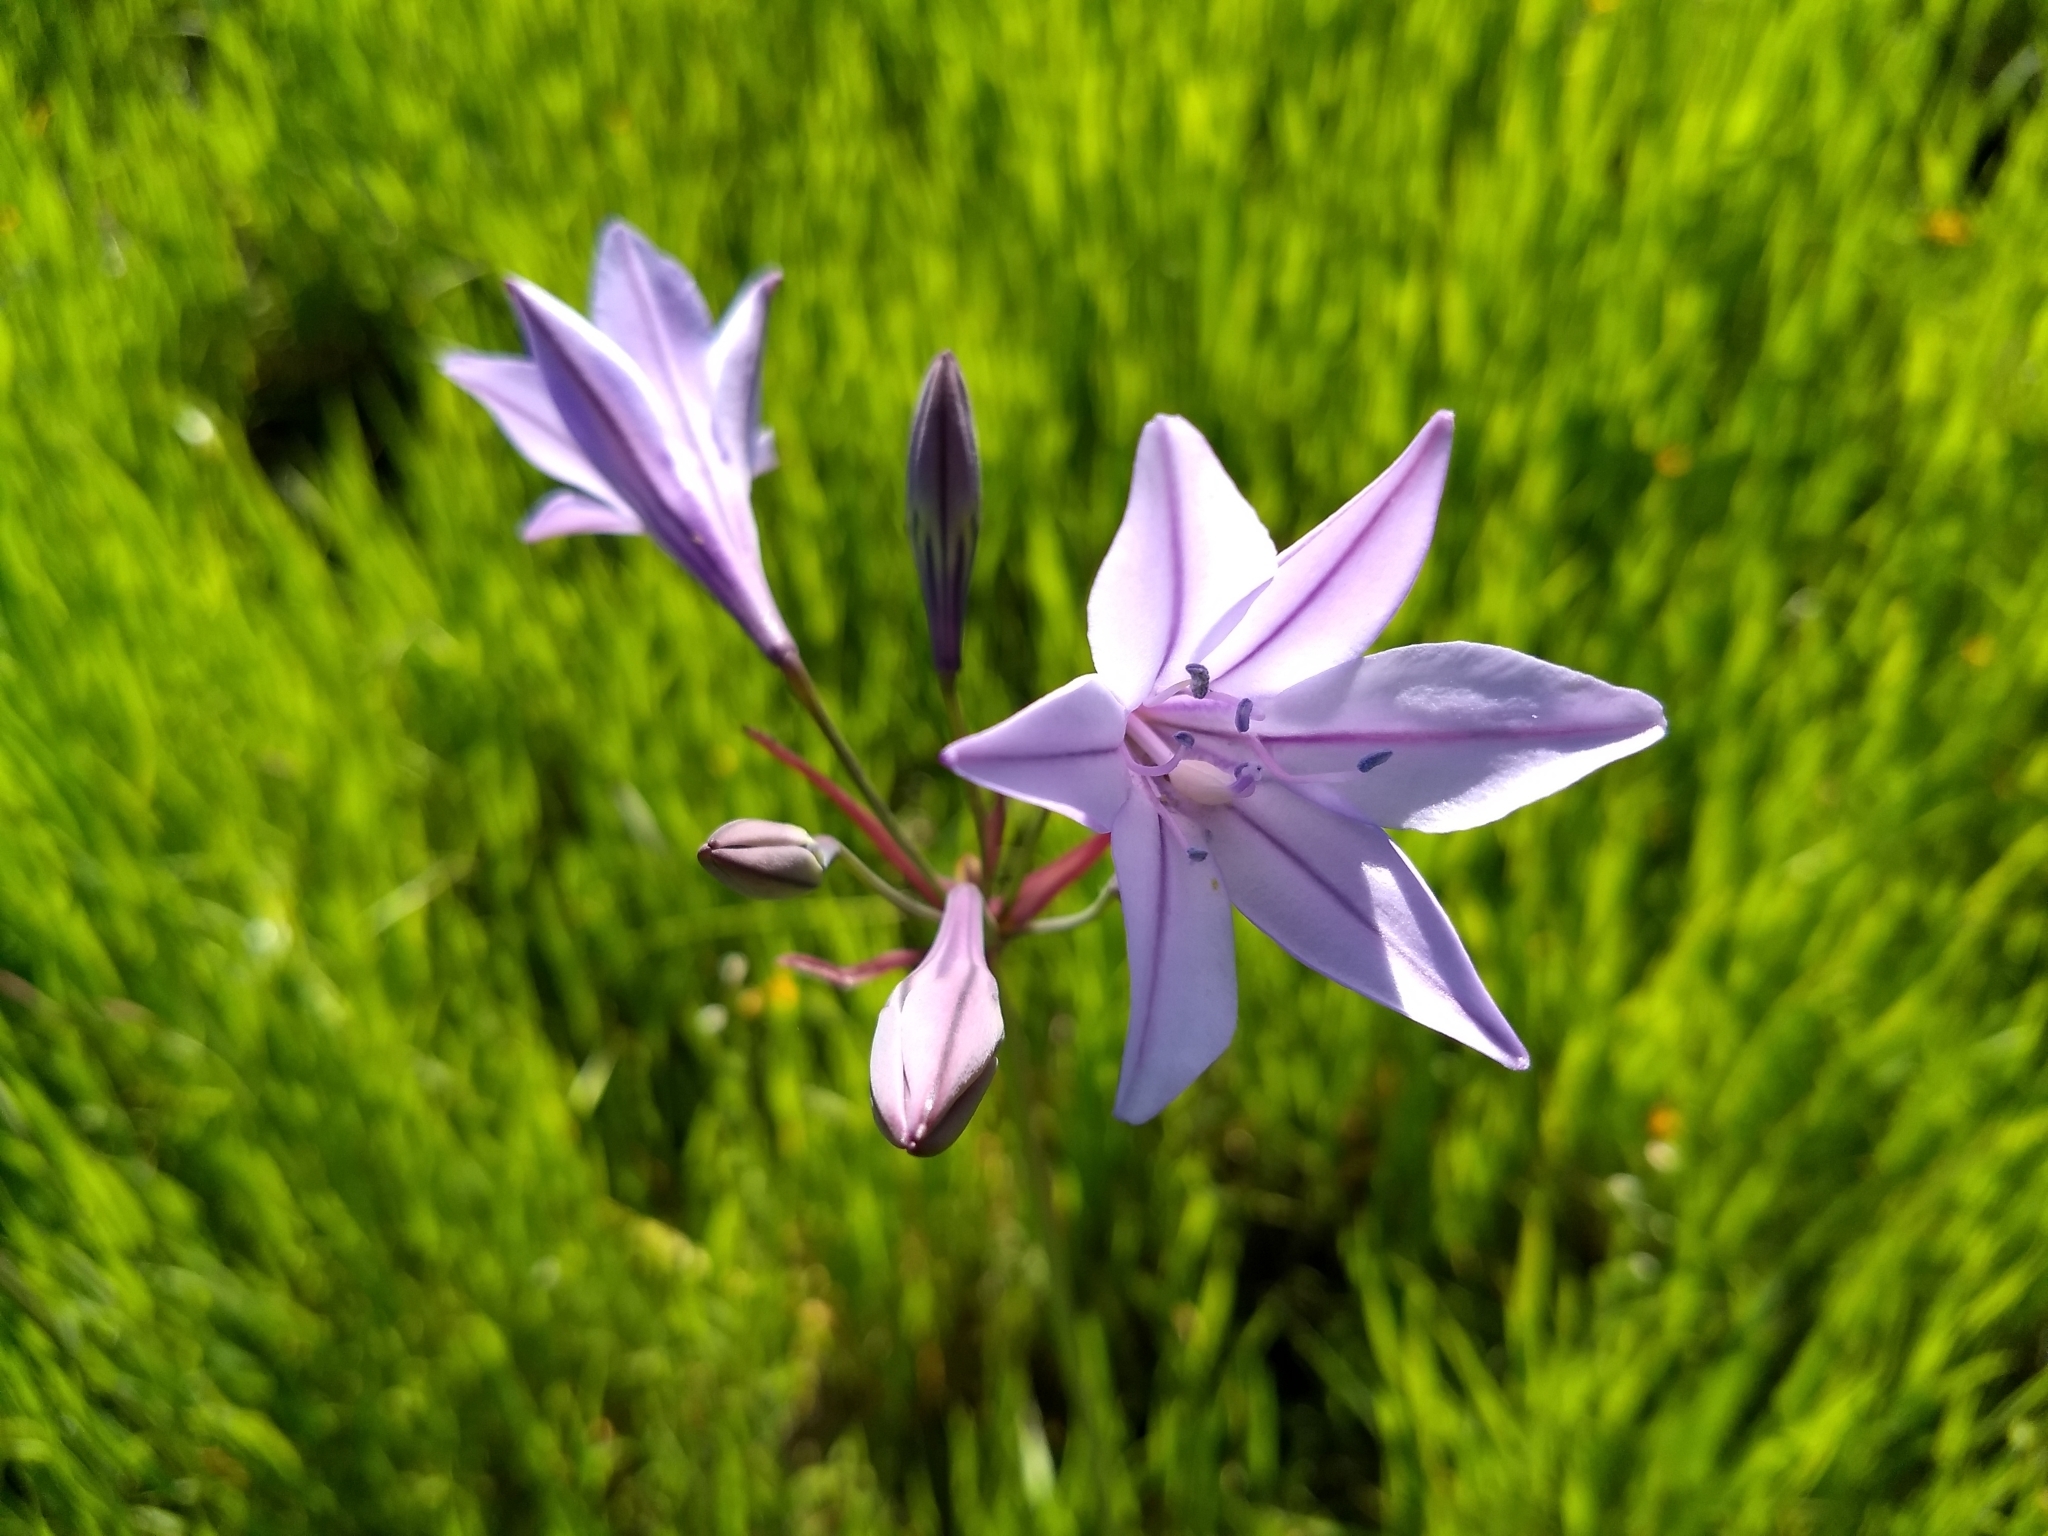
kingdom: Plantae
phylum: Tracheophyta
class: Liliopsida
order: Asparagales
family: Asparagaceae
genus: Triteleia
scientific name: Triteleia laxa
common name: Triplet-lily
